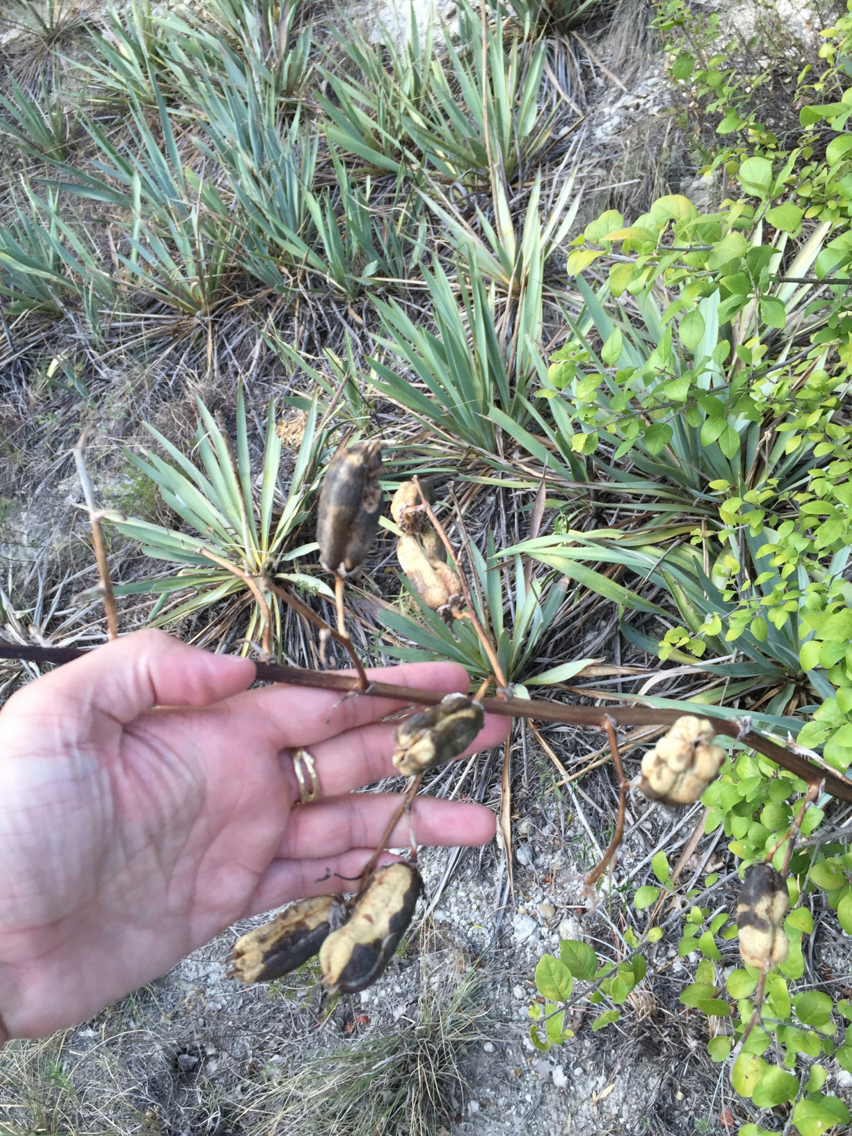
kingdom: Plantae
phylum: Tracheophyta
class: Liliopsida
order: Asparagales
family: Asparagaceae
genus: Yucca
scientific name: Yucca pallida
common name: Pale leaf yucca
